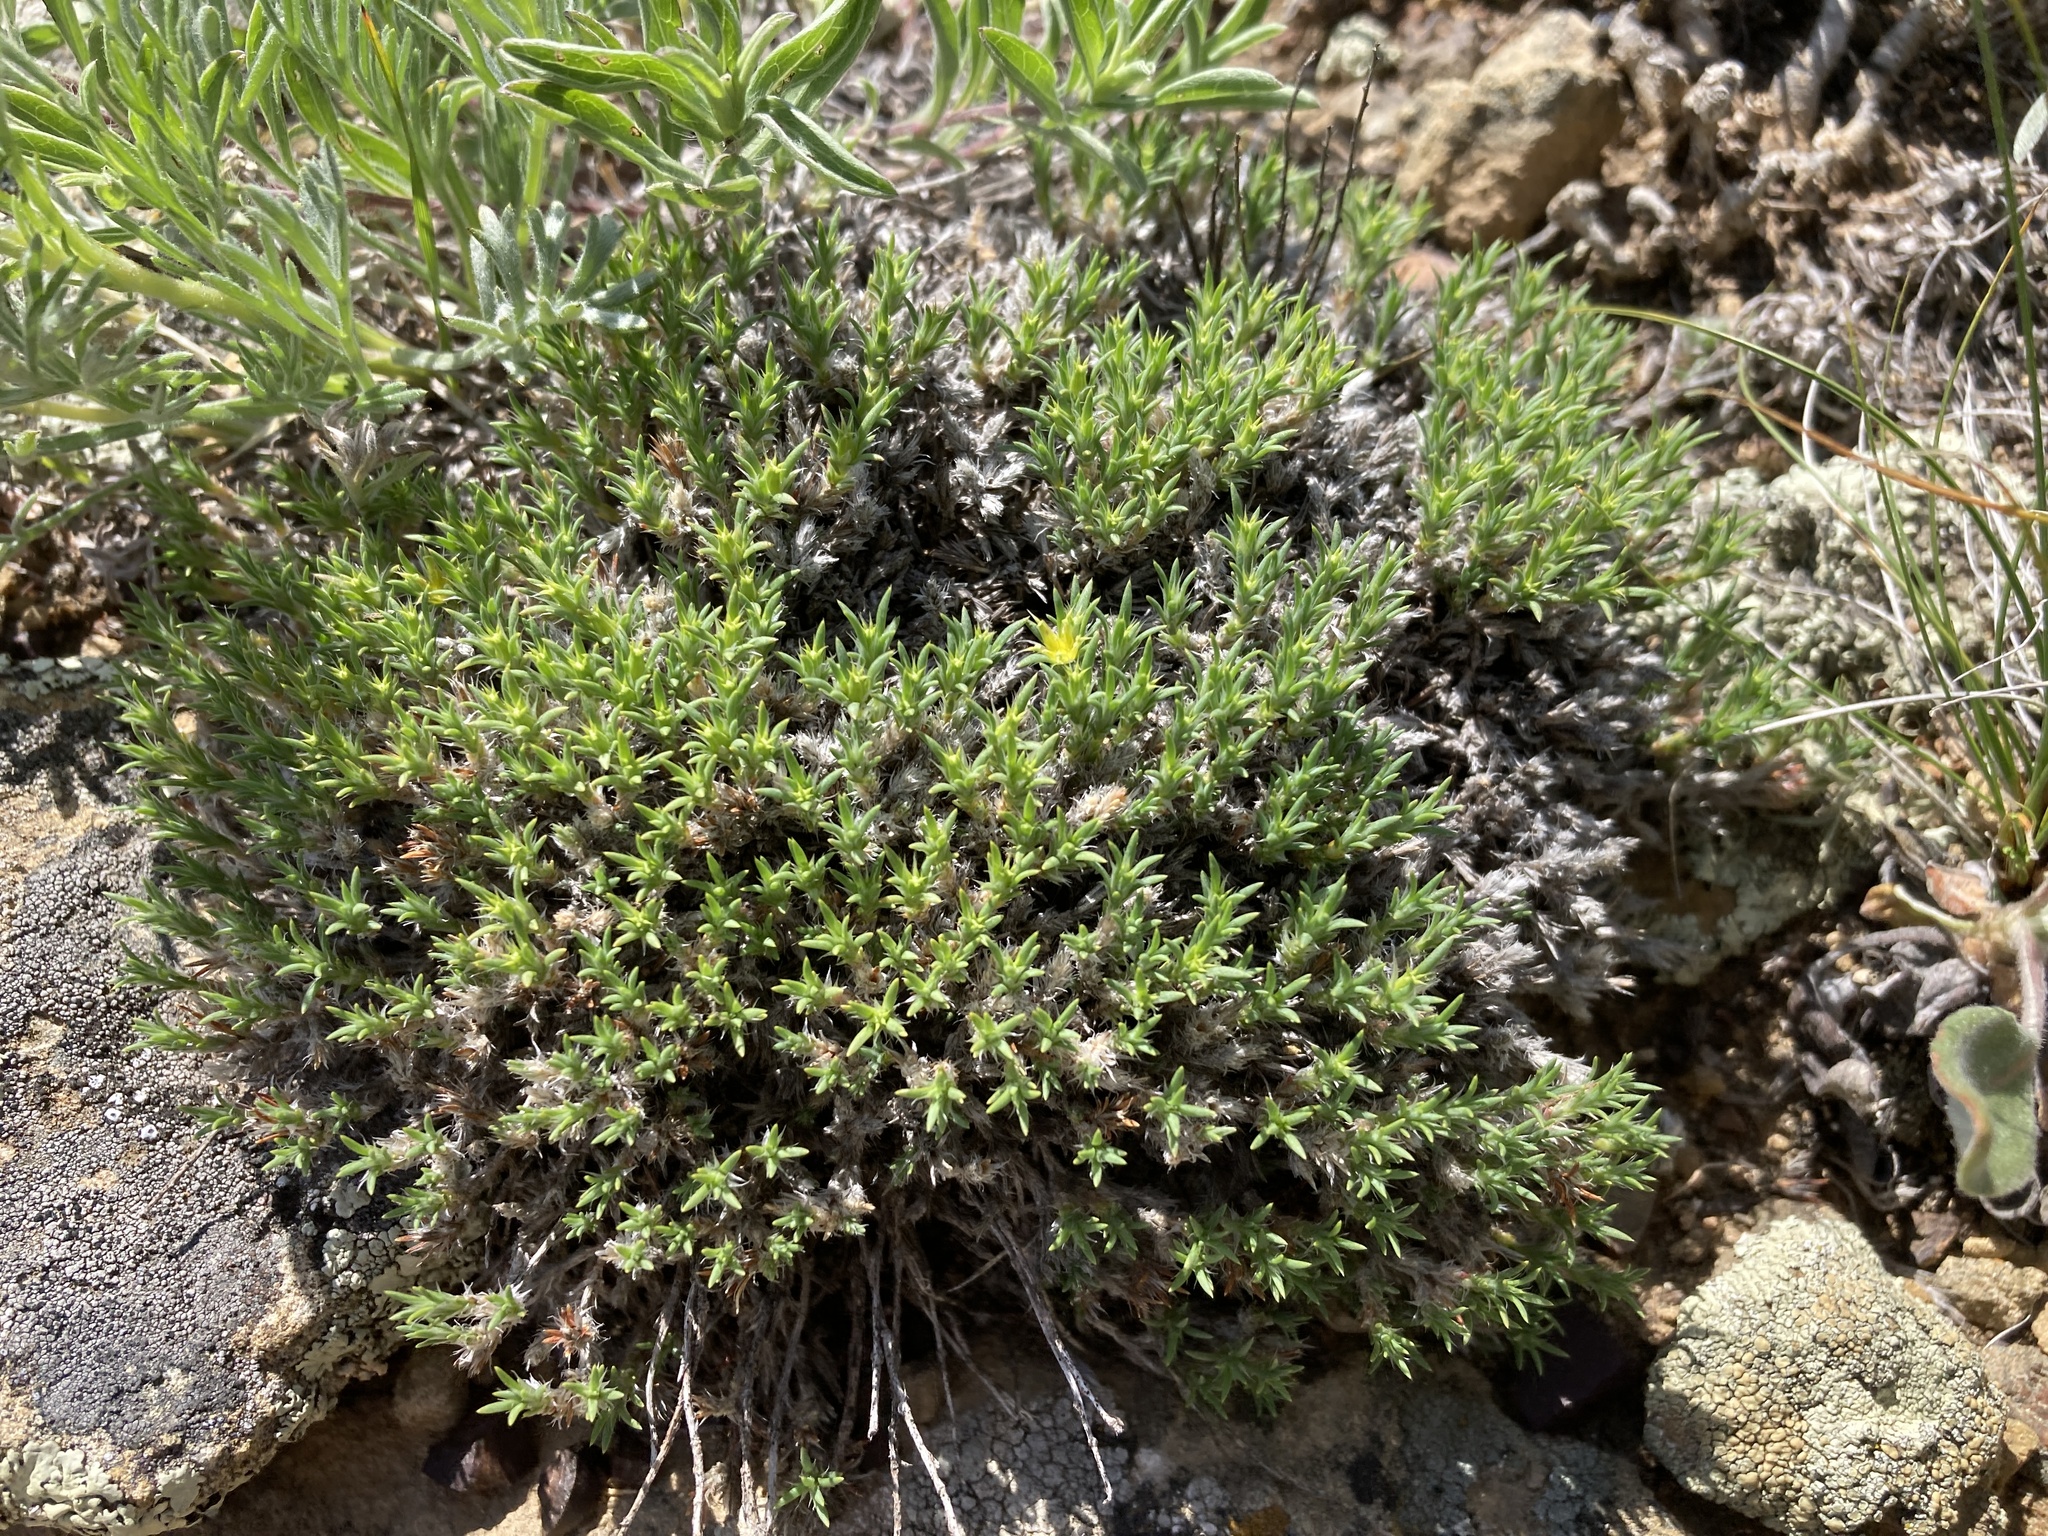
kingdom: Plantae
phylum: Tracheophyta
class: Magnoliopsida
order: Caryophyllales
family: Caryophyllaceae
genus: Paronychia
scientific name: Paronychia sessiliflora
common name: Creeping nailwort
